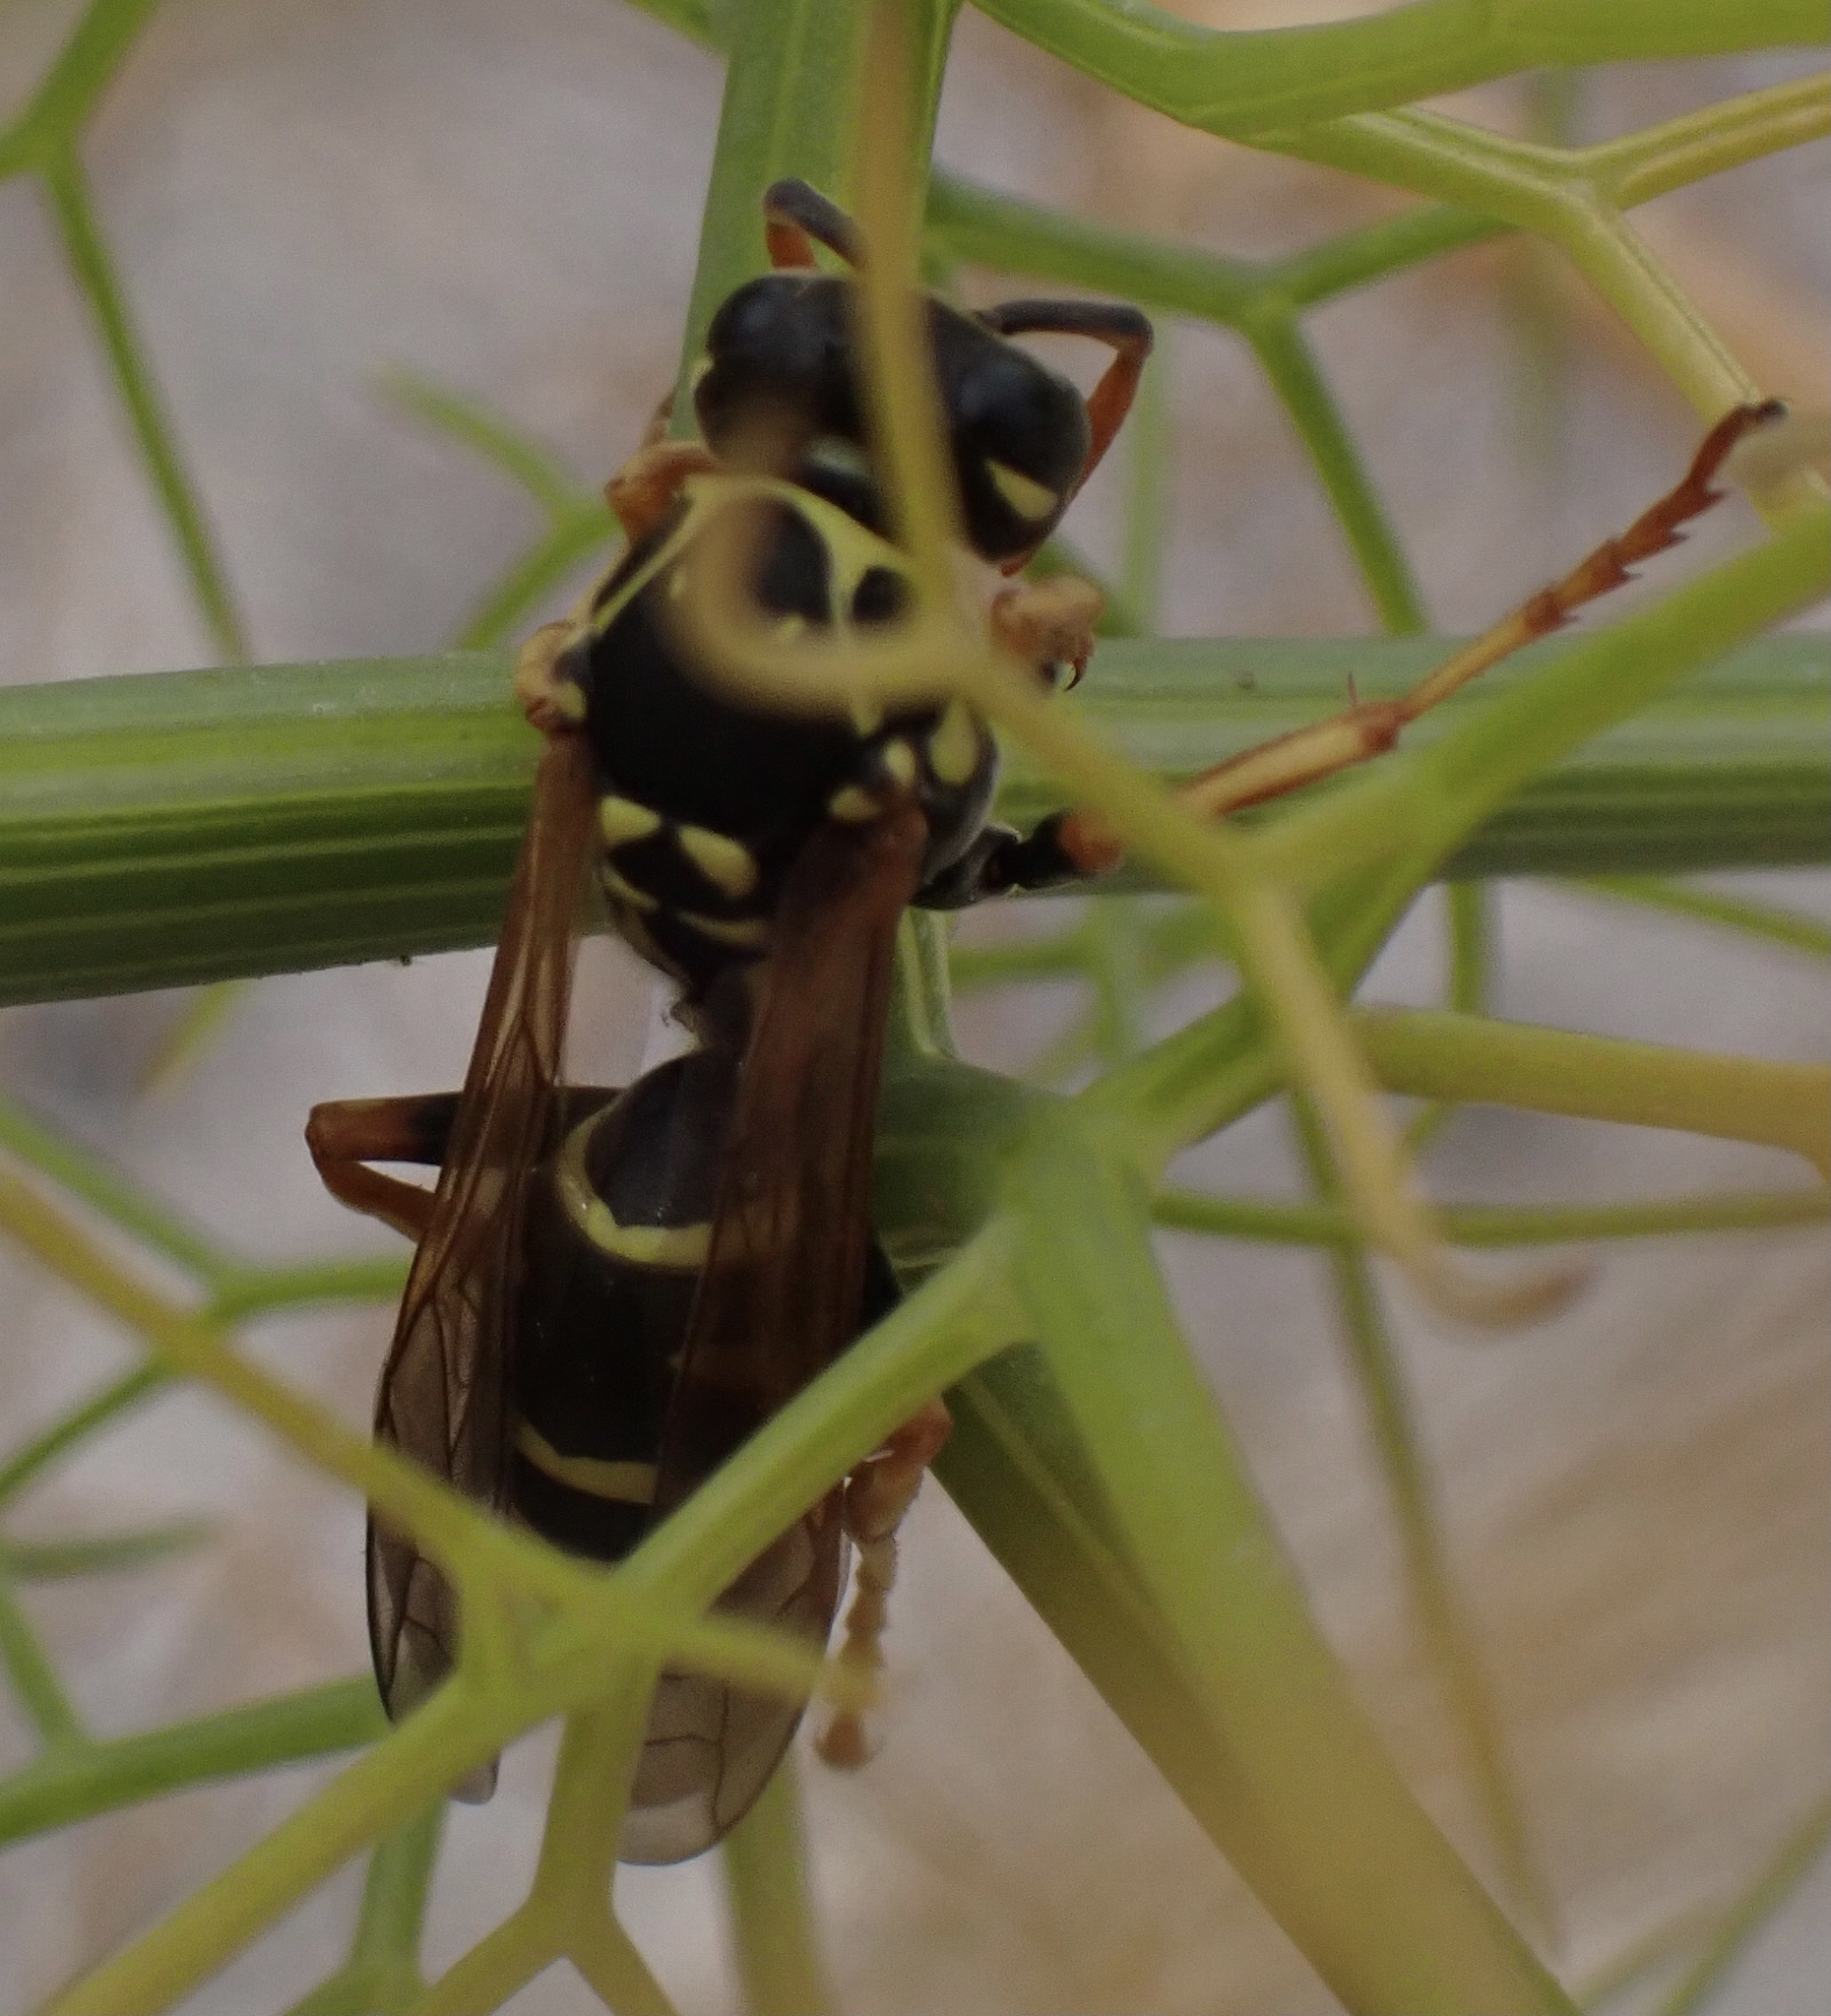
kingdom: Animalia
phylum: Arthropoda
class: Insecta
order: Hymenoptera
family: Eumenidae
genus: Polistes
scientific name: Polistes nimpha
